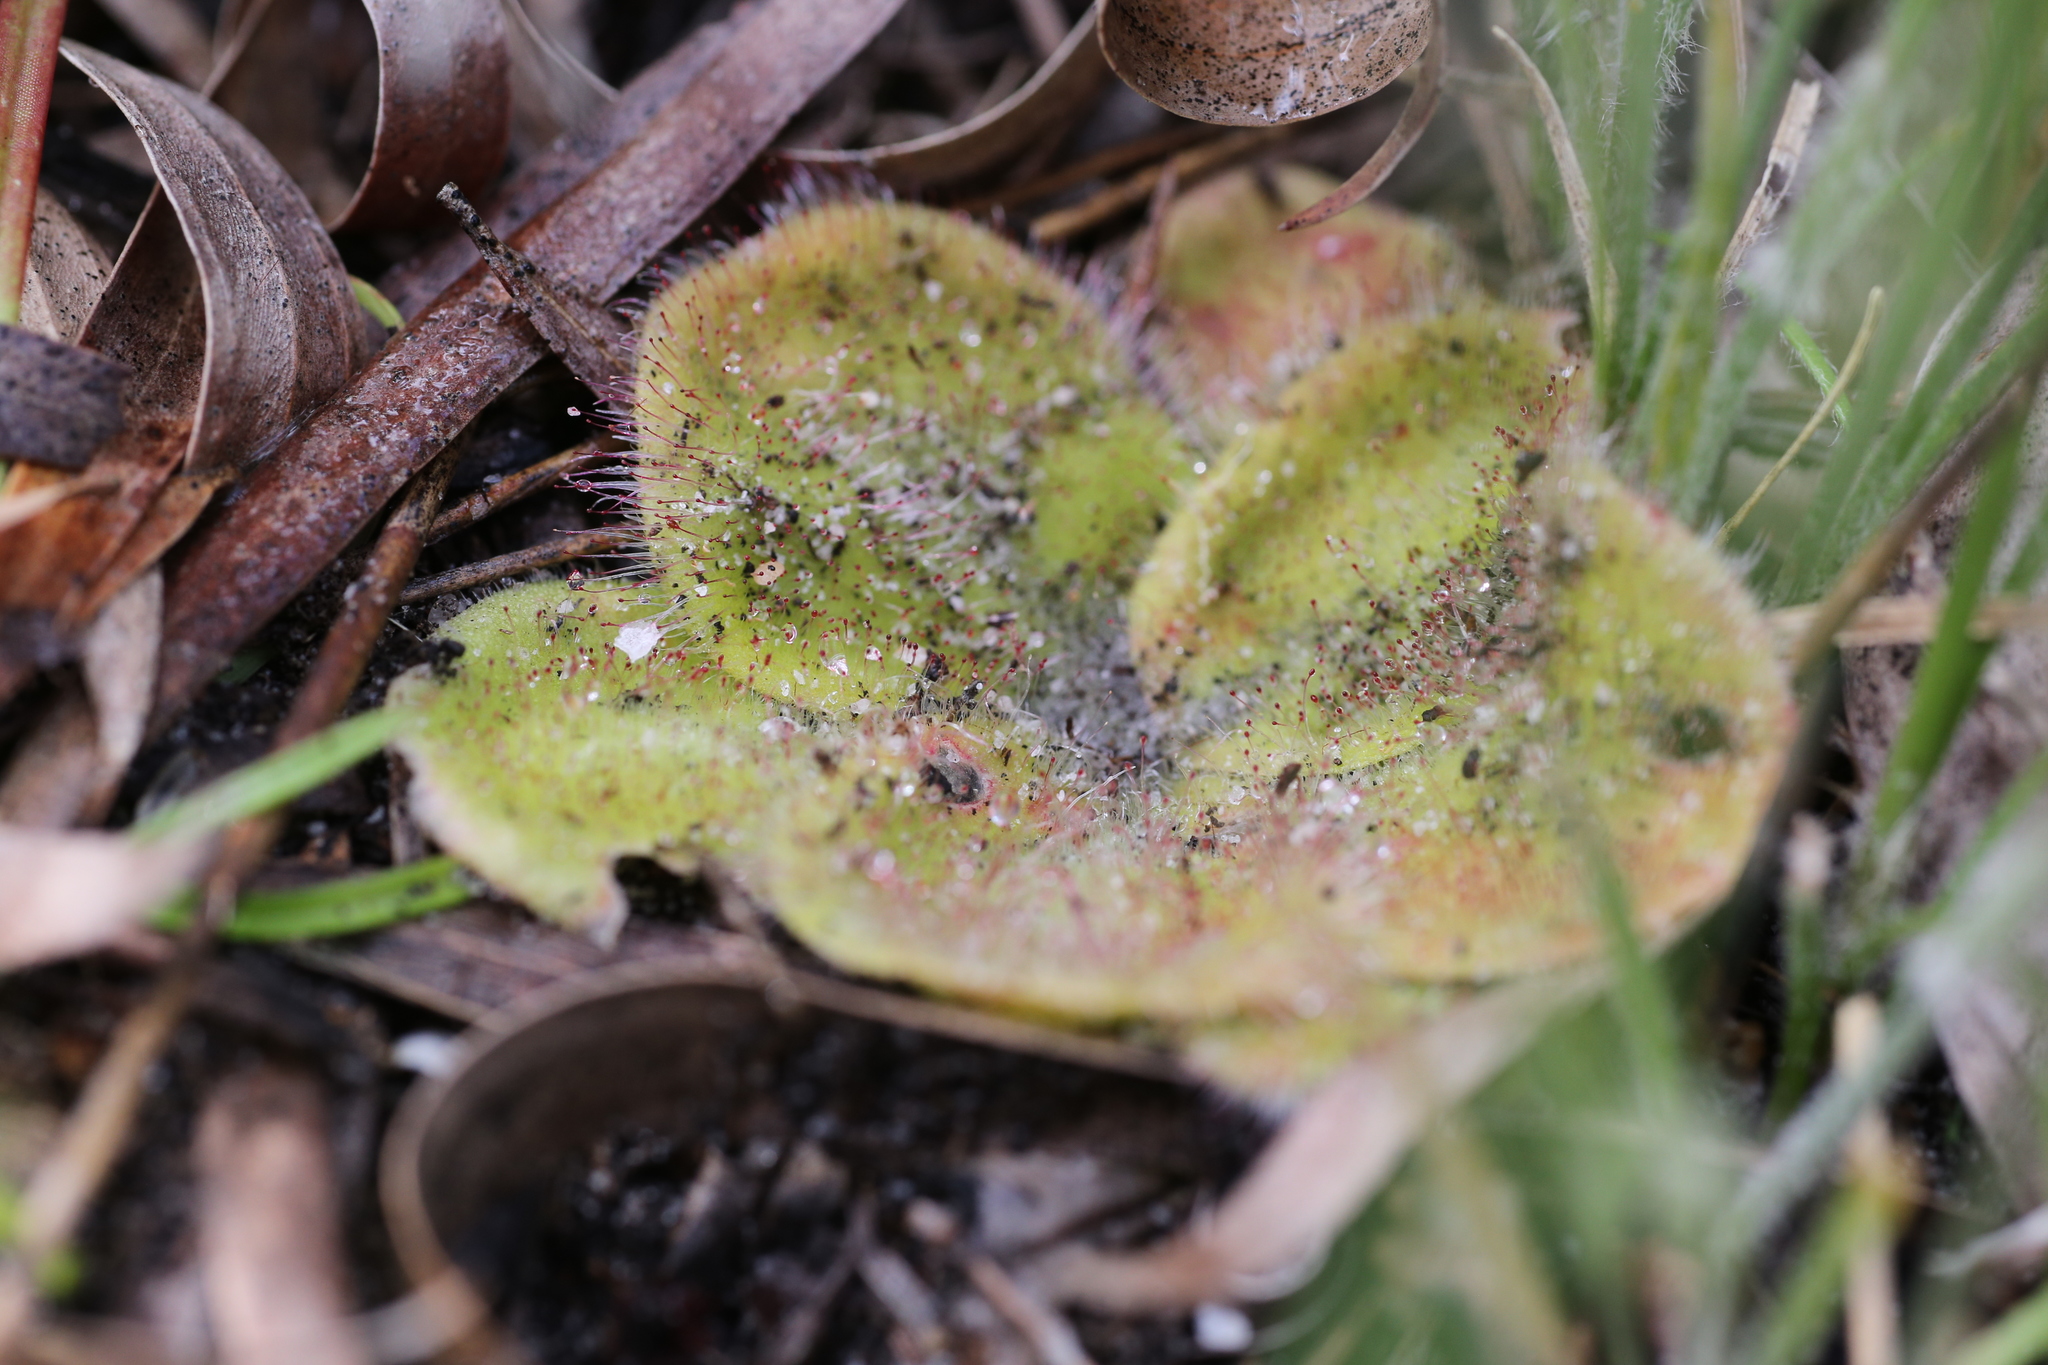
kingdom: Plantae
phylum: Tracheophyta
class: Magnoliopsida
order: Caryophyllales
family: Droseraceae
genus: Drosera
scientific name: Drosera erythrorhiza
